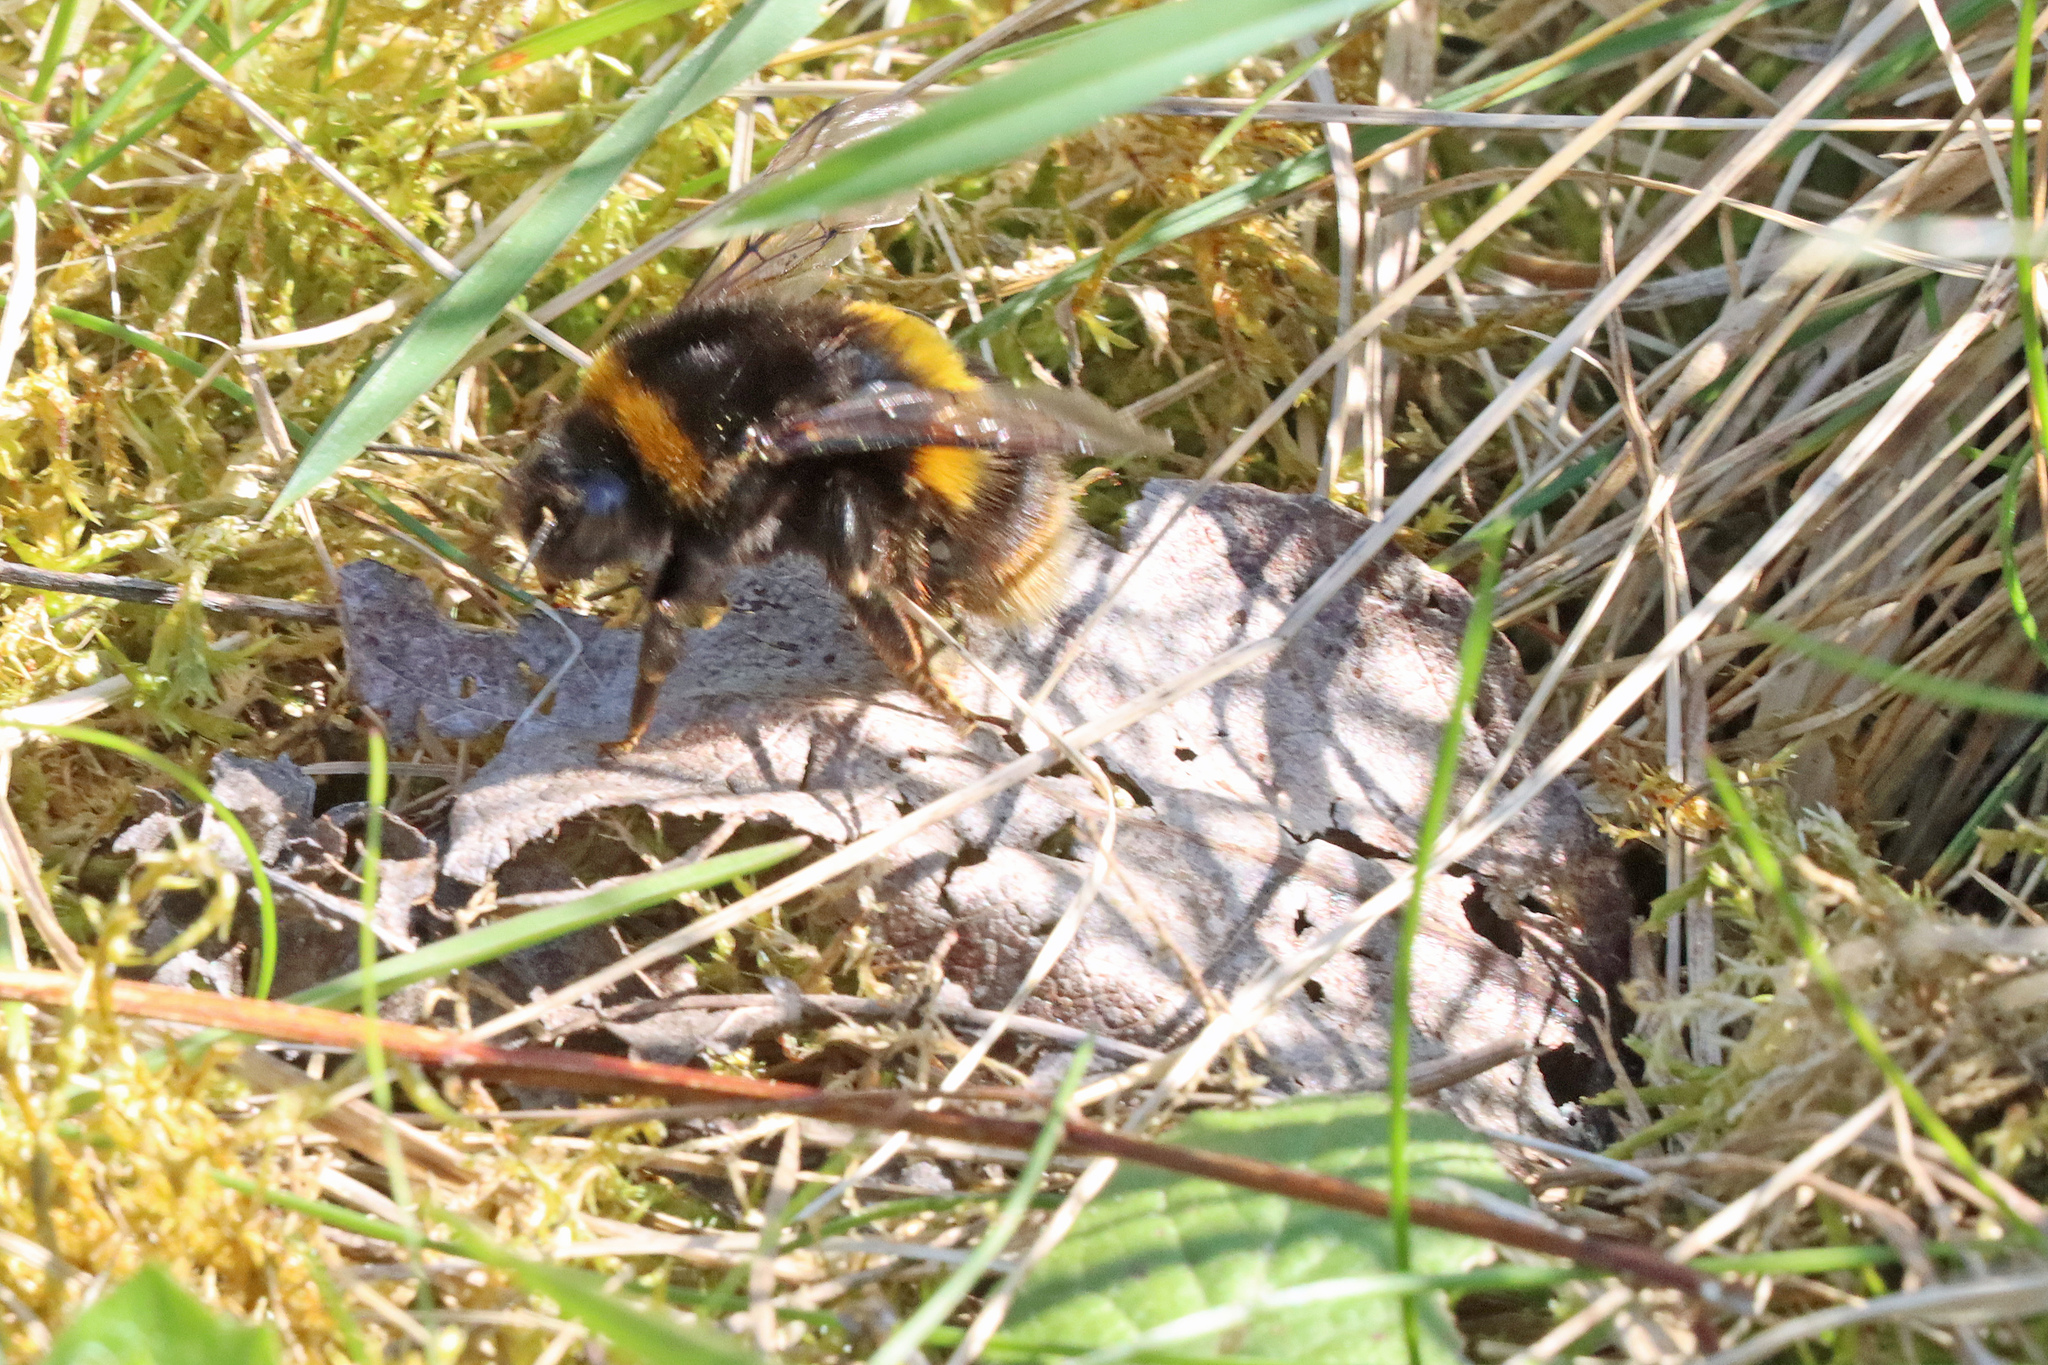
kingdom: Animalia
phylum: Arthropoda
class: Insecta
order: Hymenoptera
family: Apidae
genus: Bombus
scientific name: Bombus terrestris
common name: Buff-tailed bumblebee
